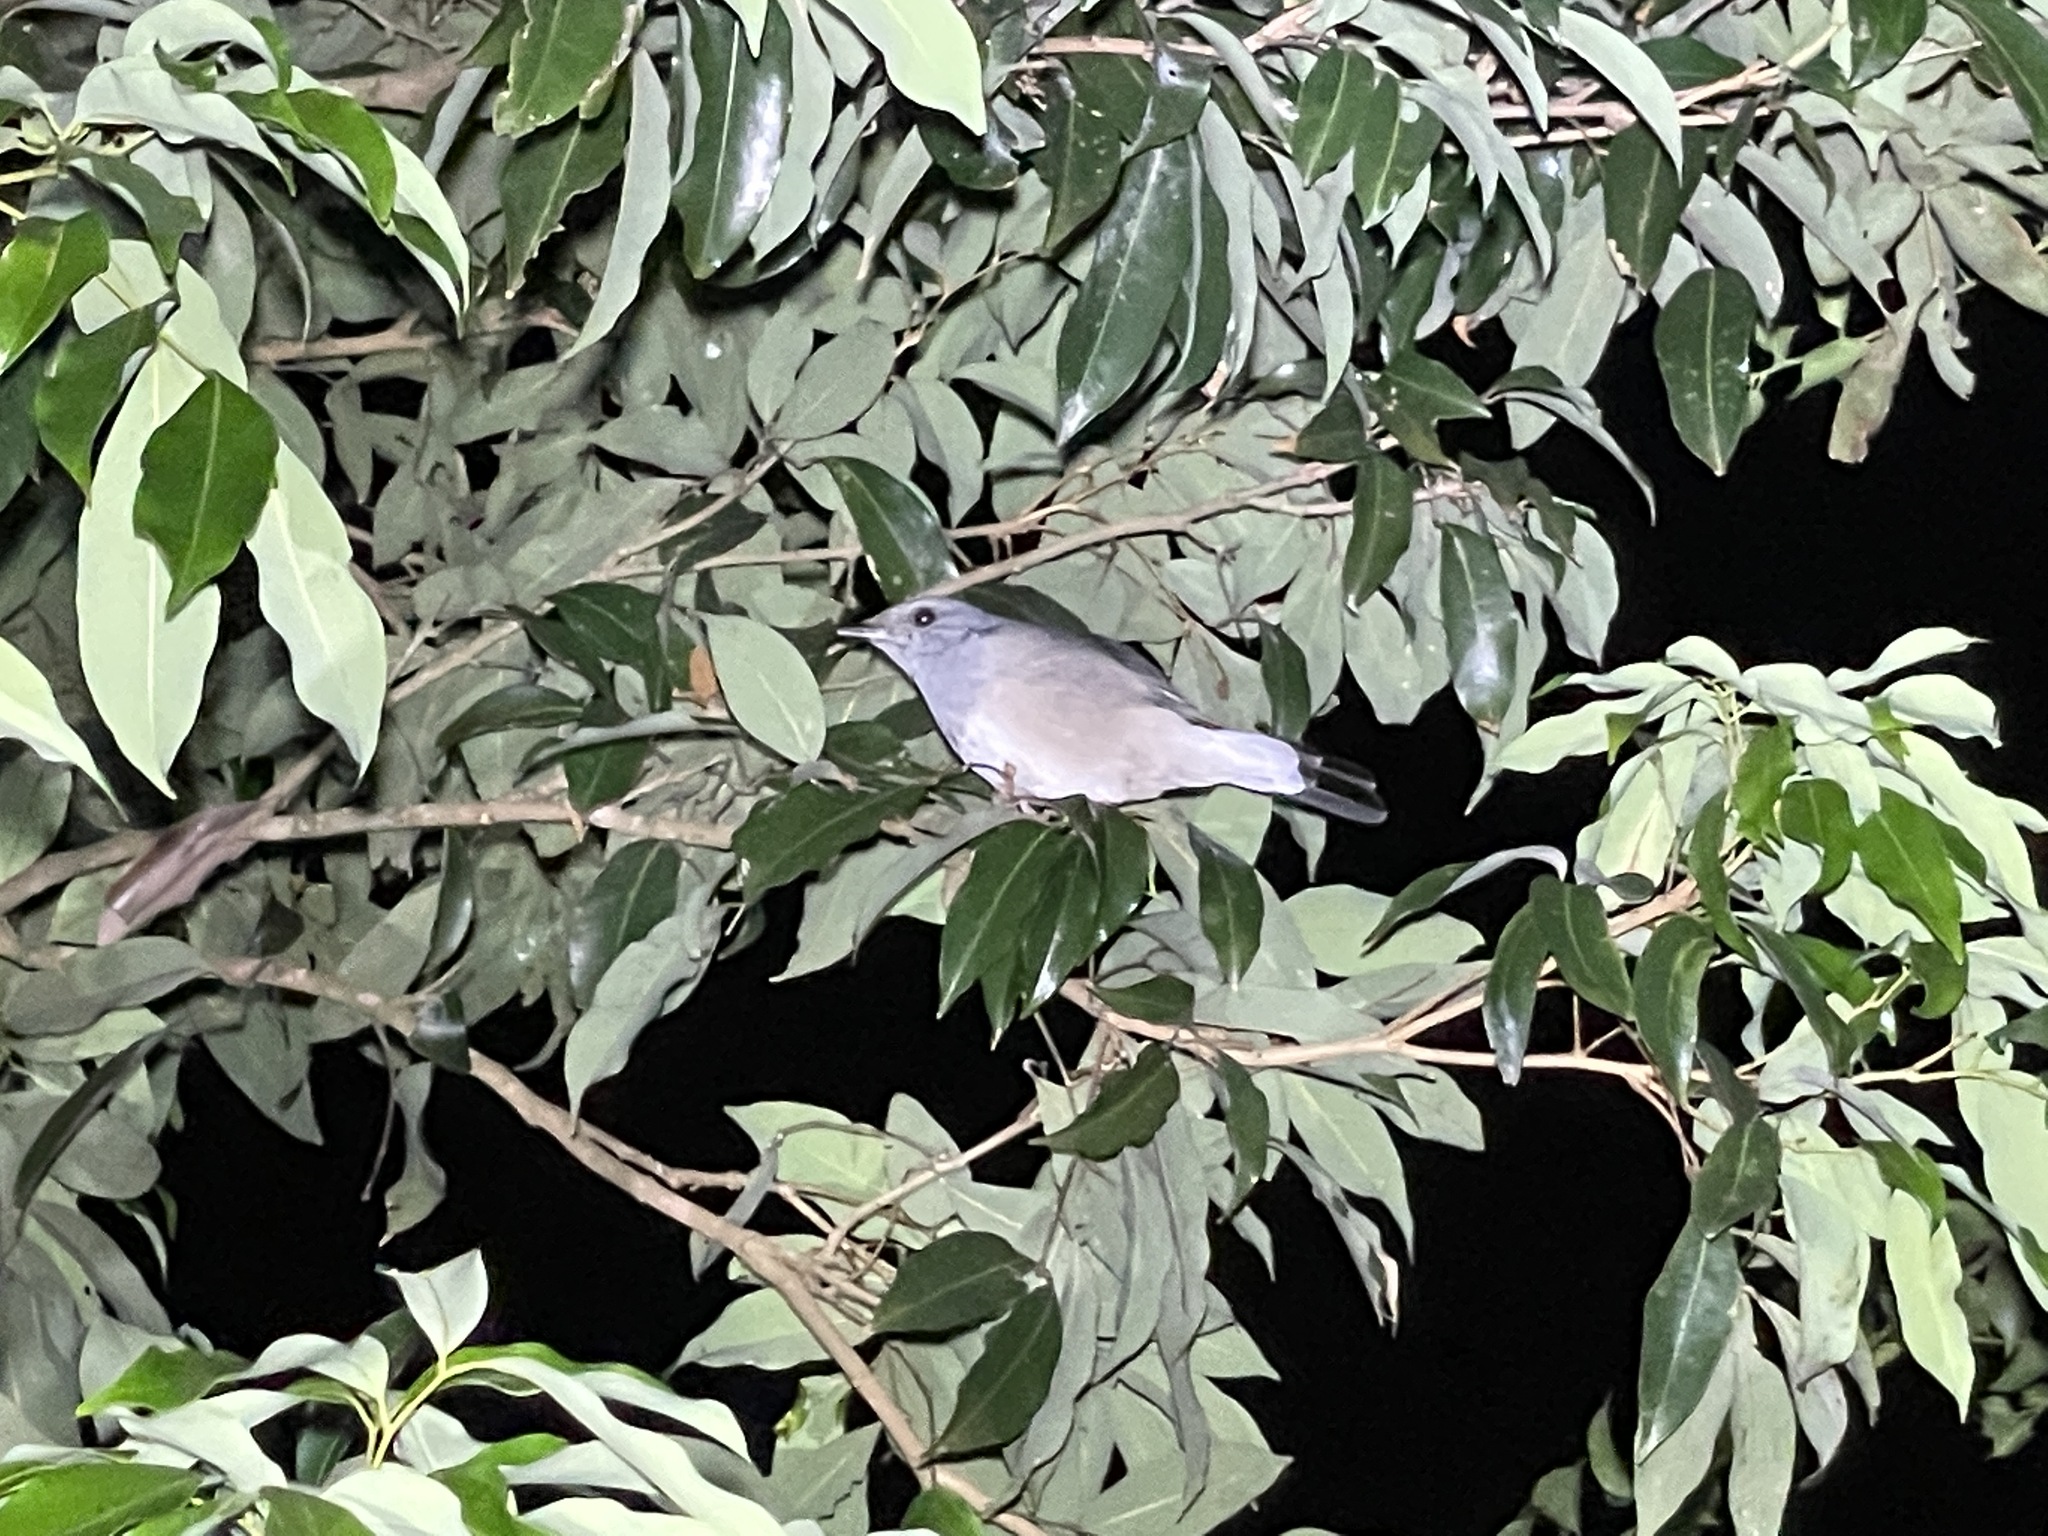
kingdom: Animalia
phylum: Chordata
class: Aves
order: Passeriformes
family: Muscicapidae
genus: Copsychus
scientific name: Copsychus saularis
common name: Oriental magpie-robin
